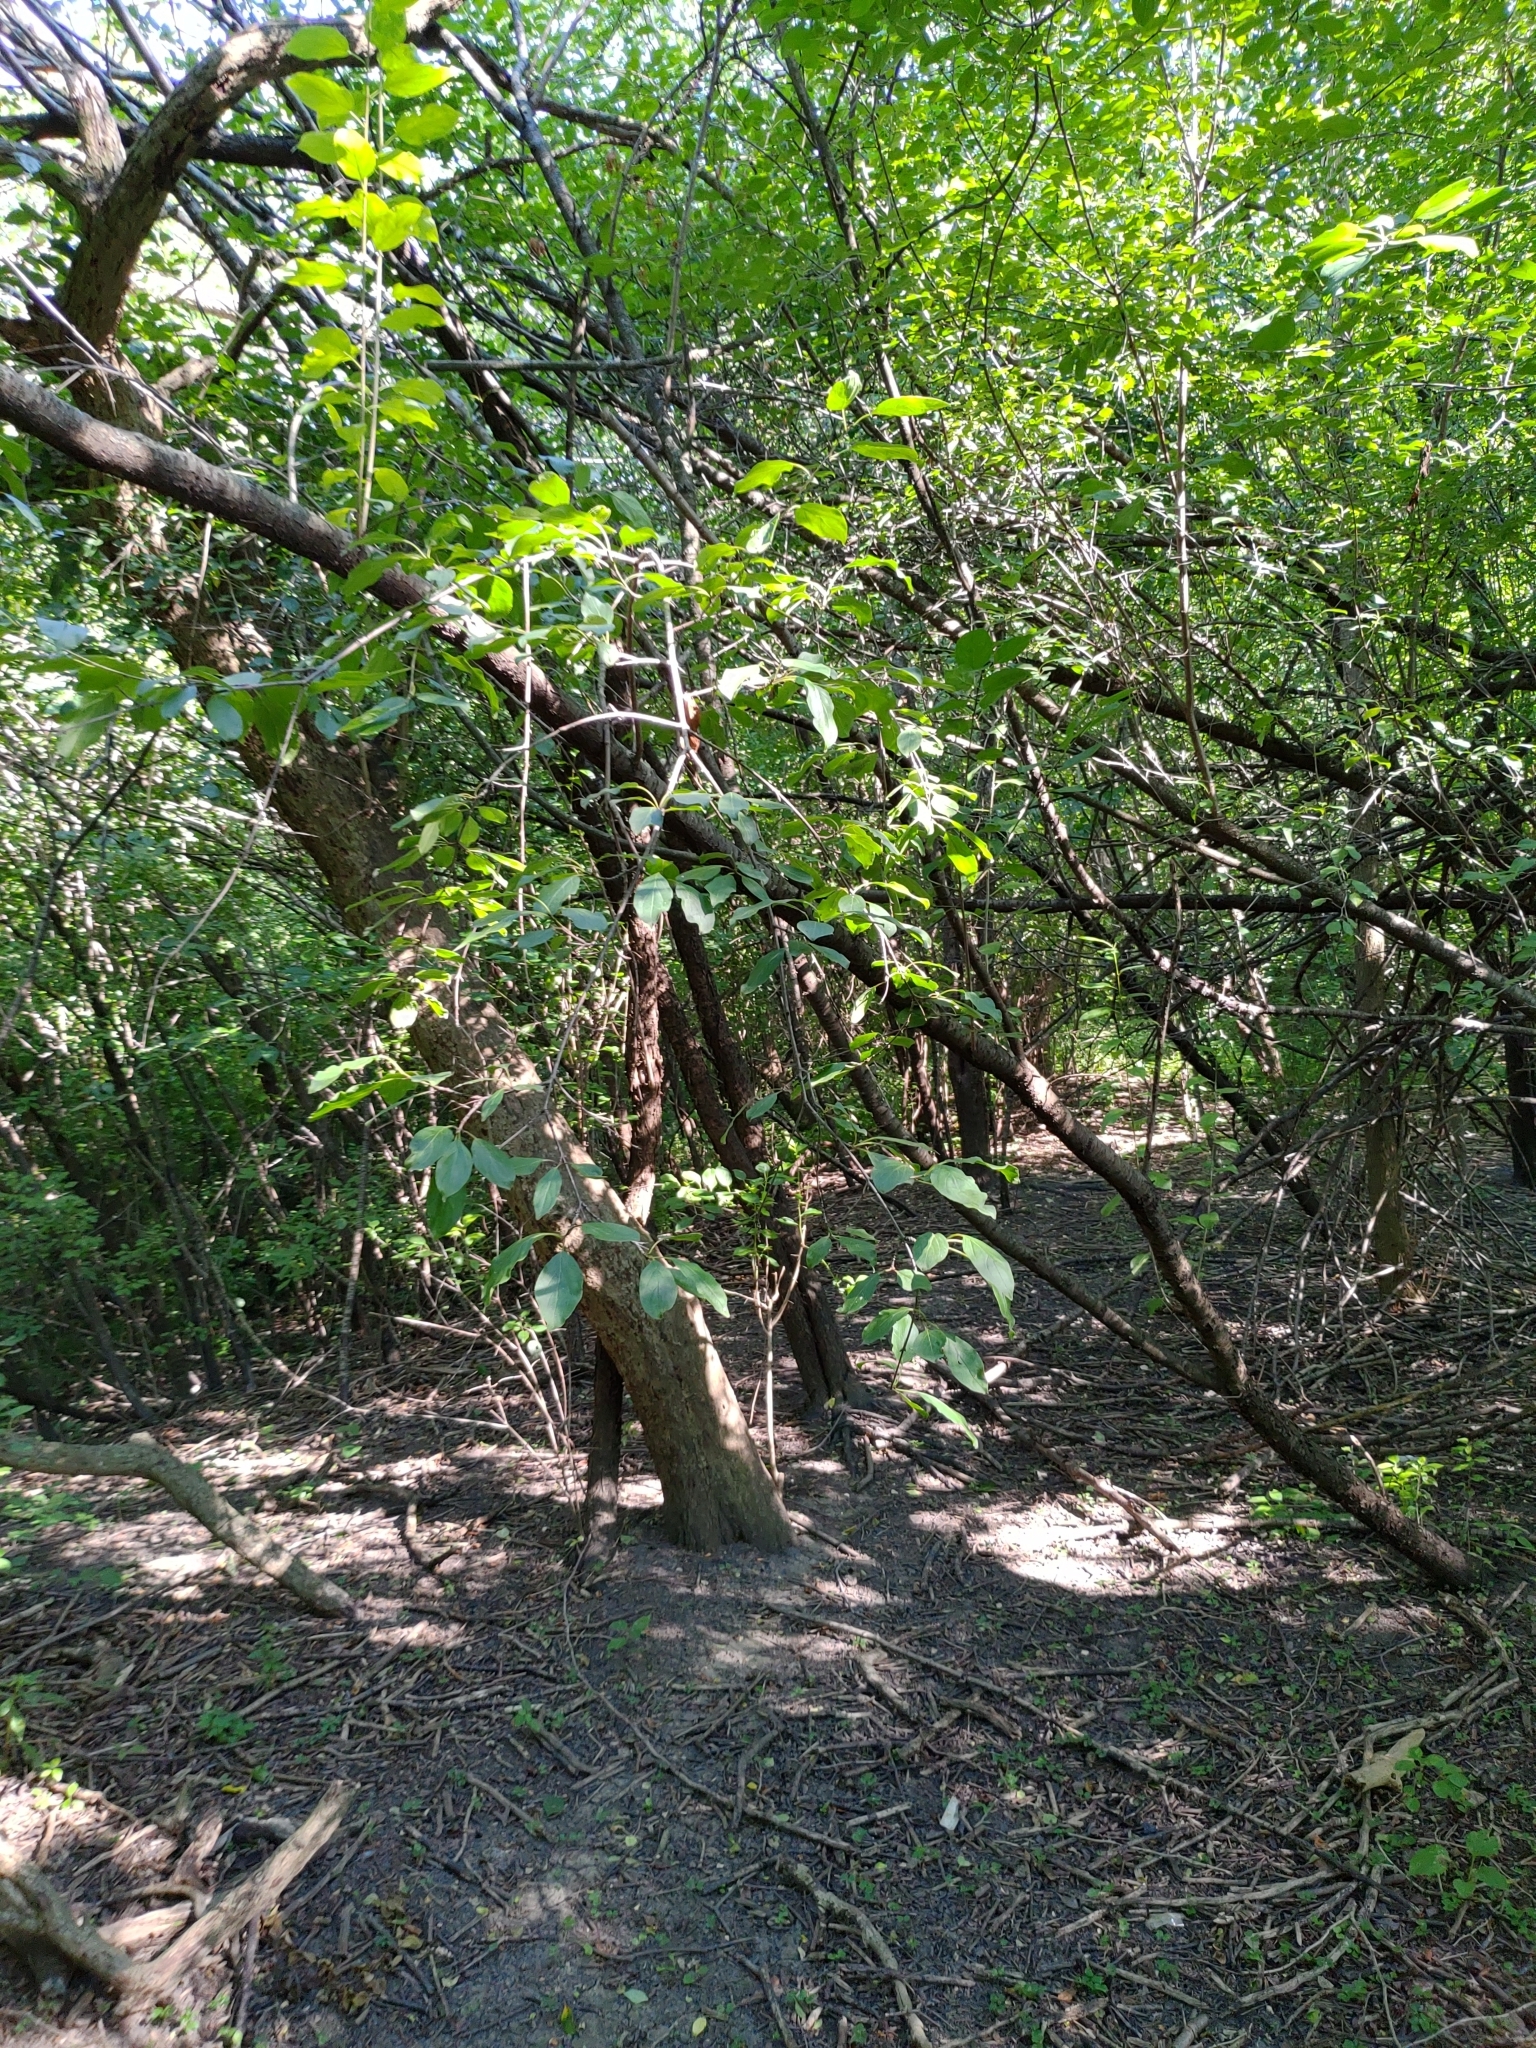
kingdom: Plantae
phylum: Tracheophyta
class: Magnoliopsida
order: Rosales
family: Rhamnaceae
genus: Rhamnus
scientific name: Rhamnus cathartica
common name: Common buckthorn
